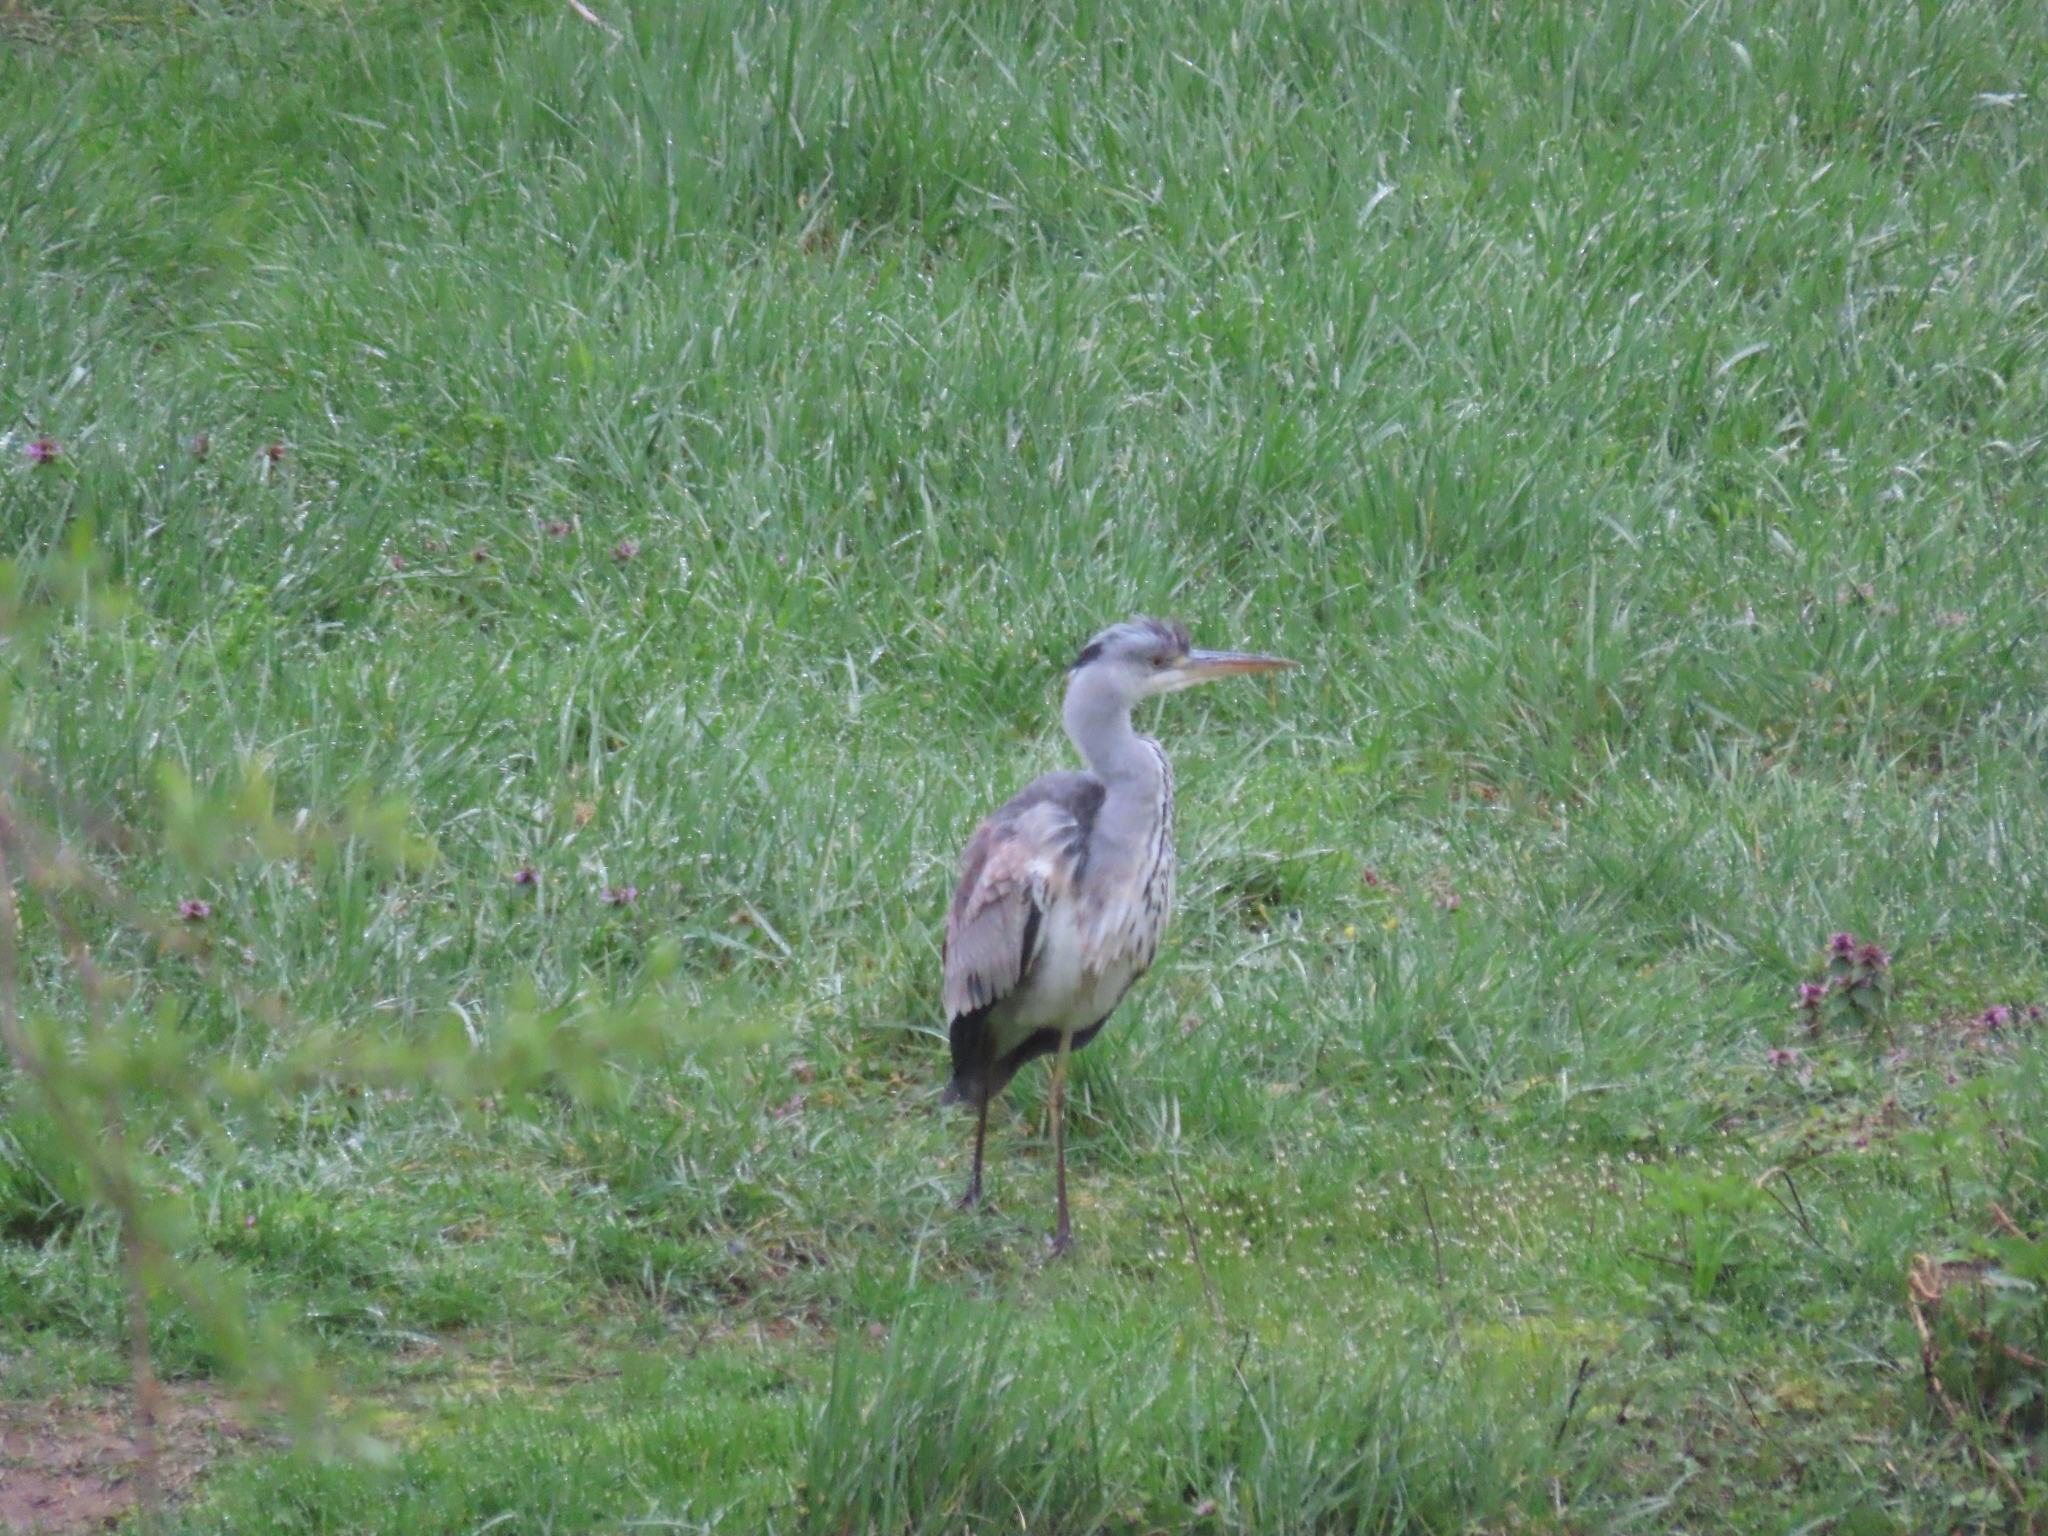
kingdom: Animalia
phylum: Chordata
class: Aves
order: Pelecaniformes
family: Ardeidae
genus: Ardea
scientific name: Ardea cinerea
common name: Grey heron
